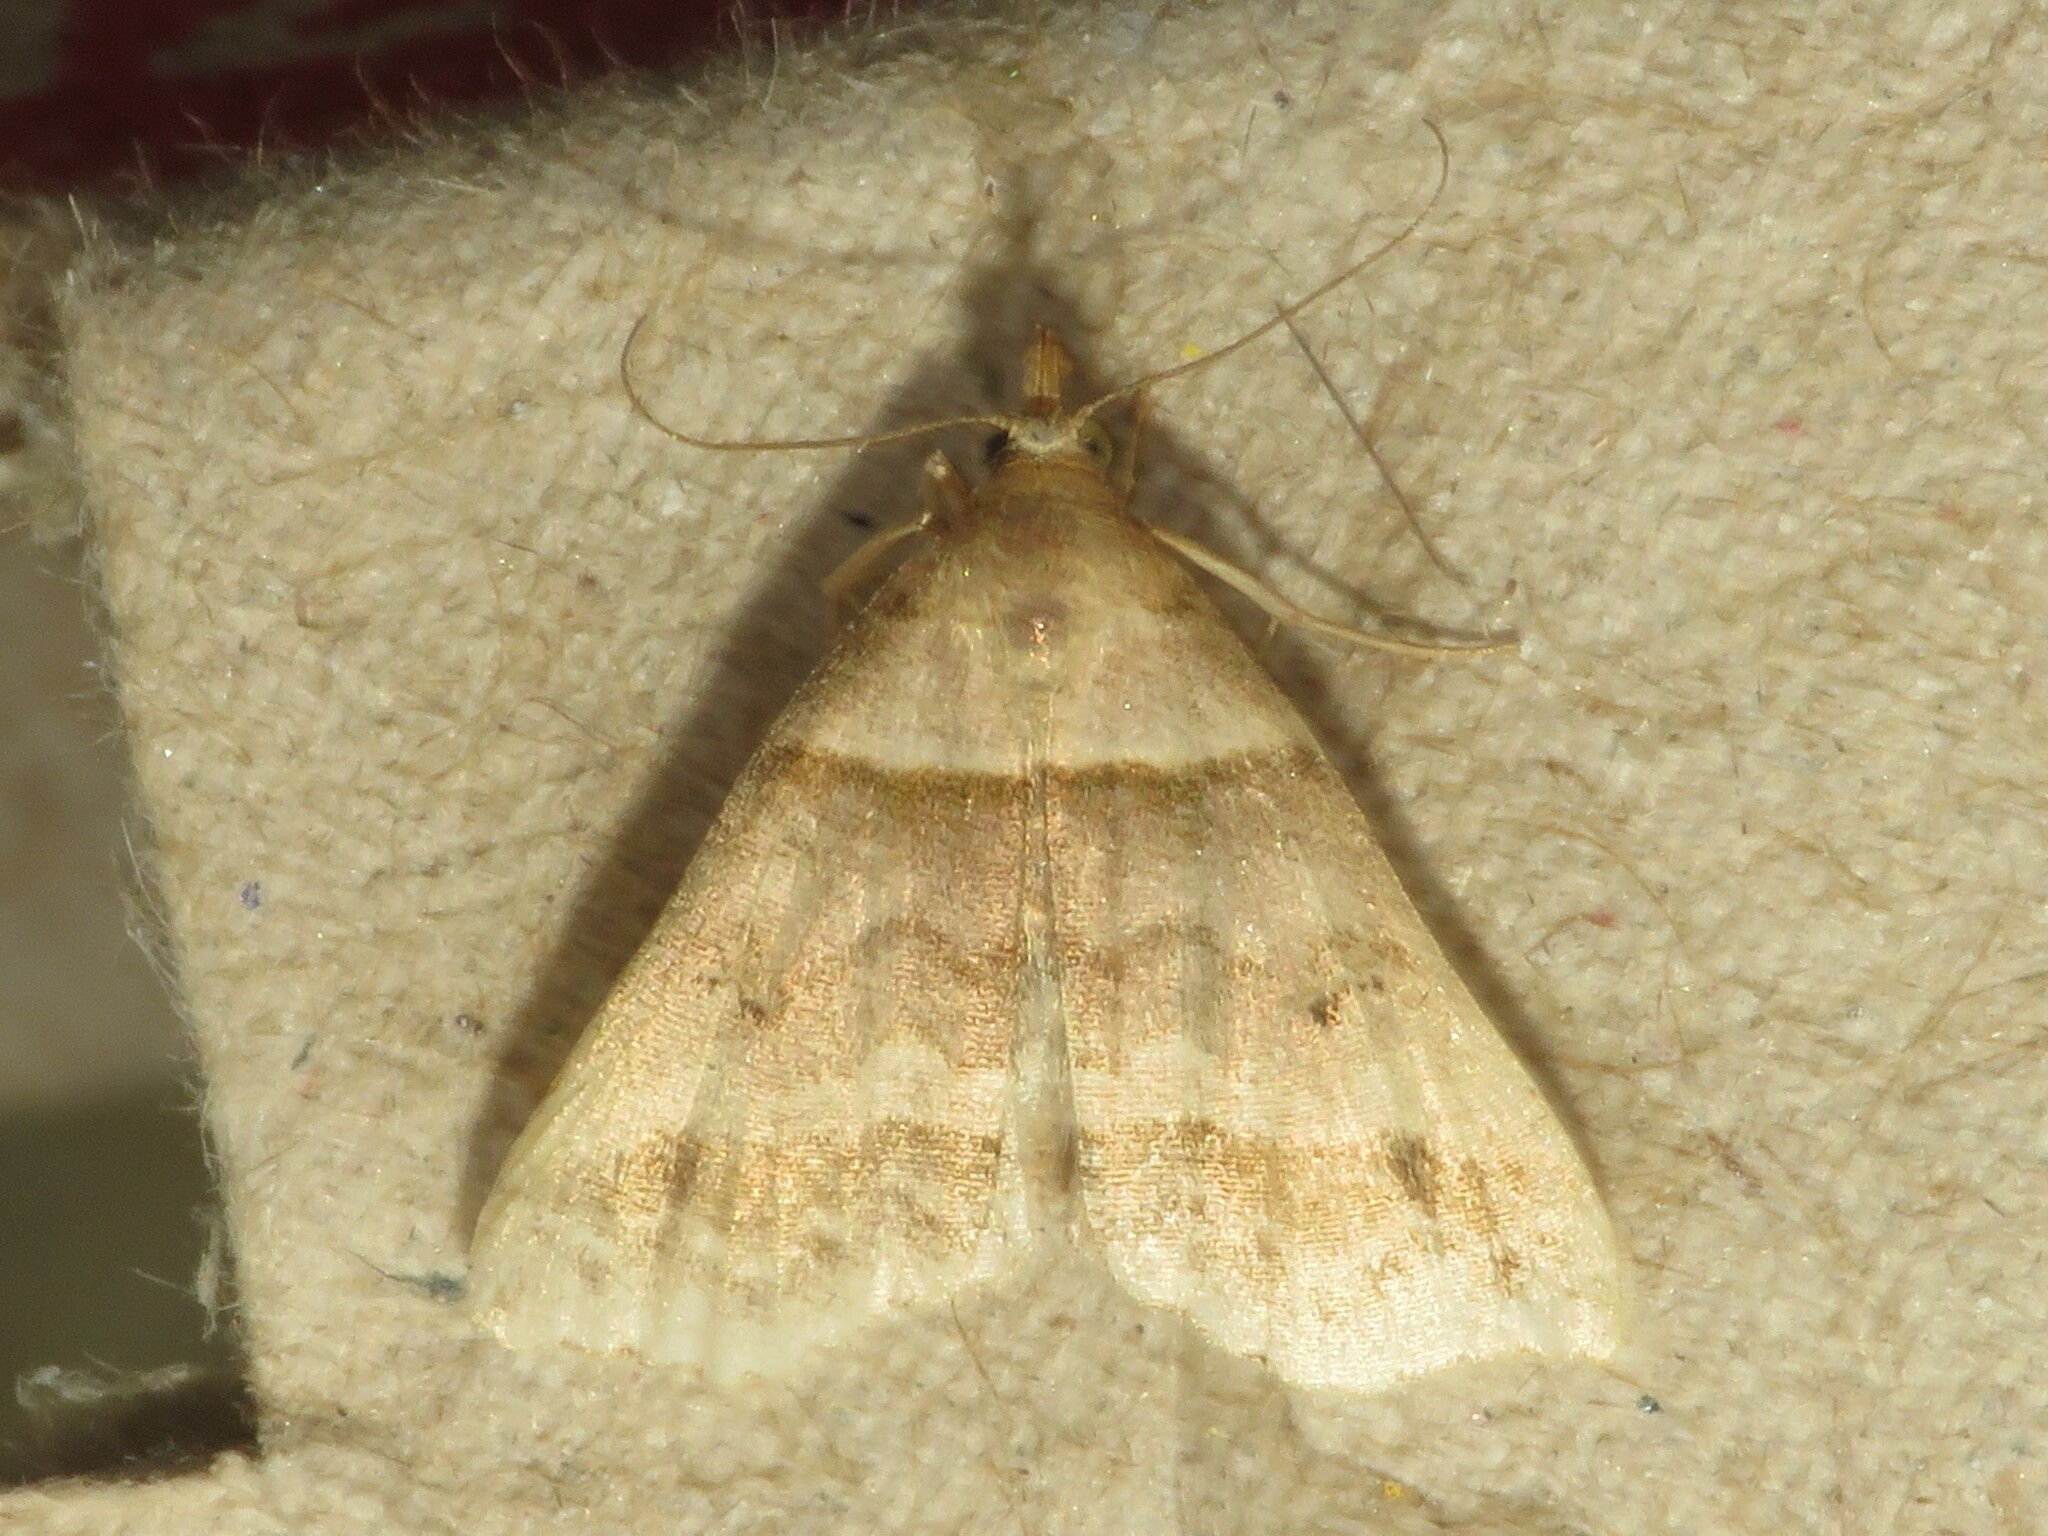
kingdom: Animalia
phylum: Arthropoda
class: Insecta
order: Lepidoptera
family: Erebidae
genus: Phaeolita
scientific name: Phaeolita pyramusalis
